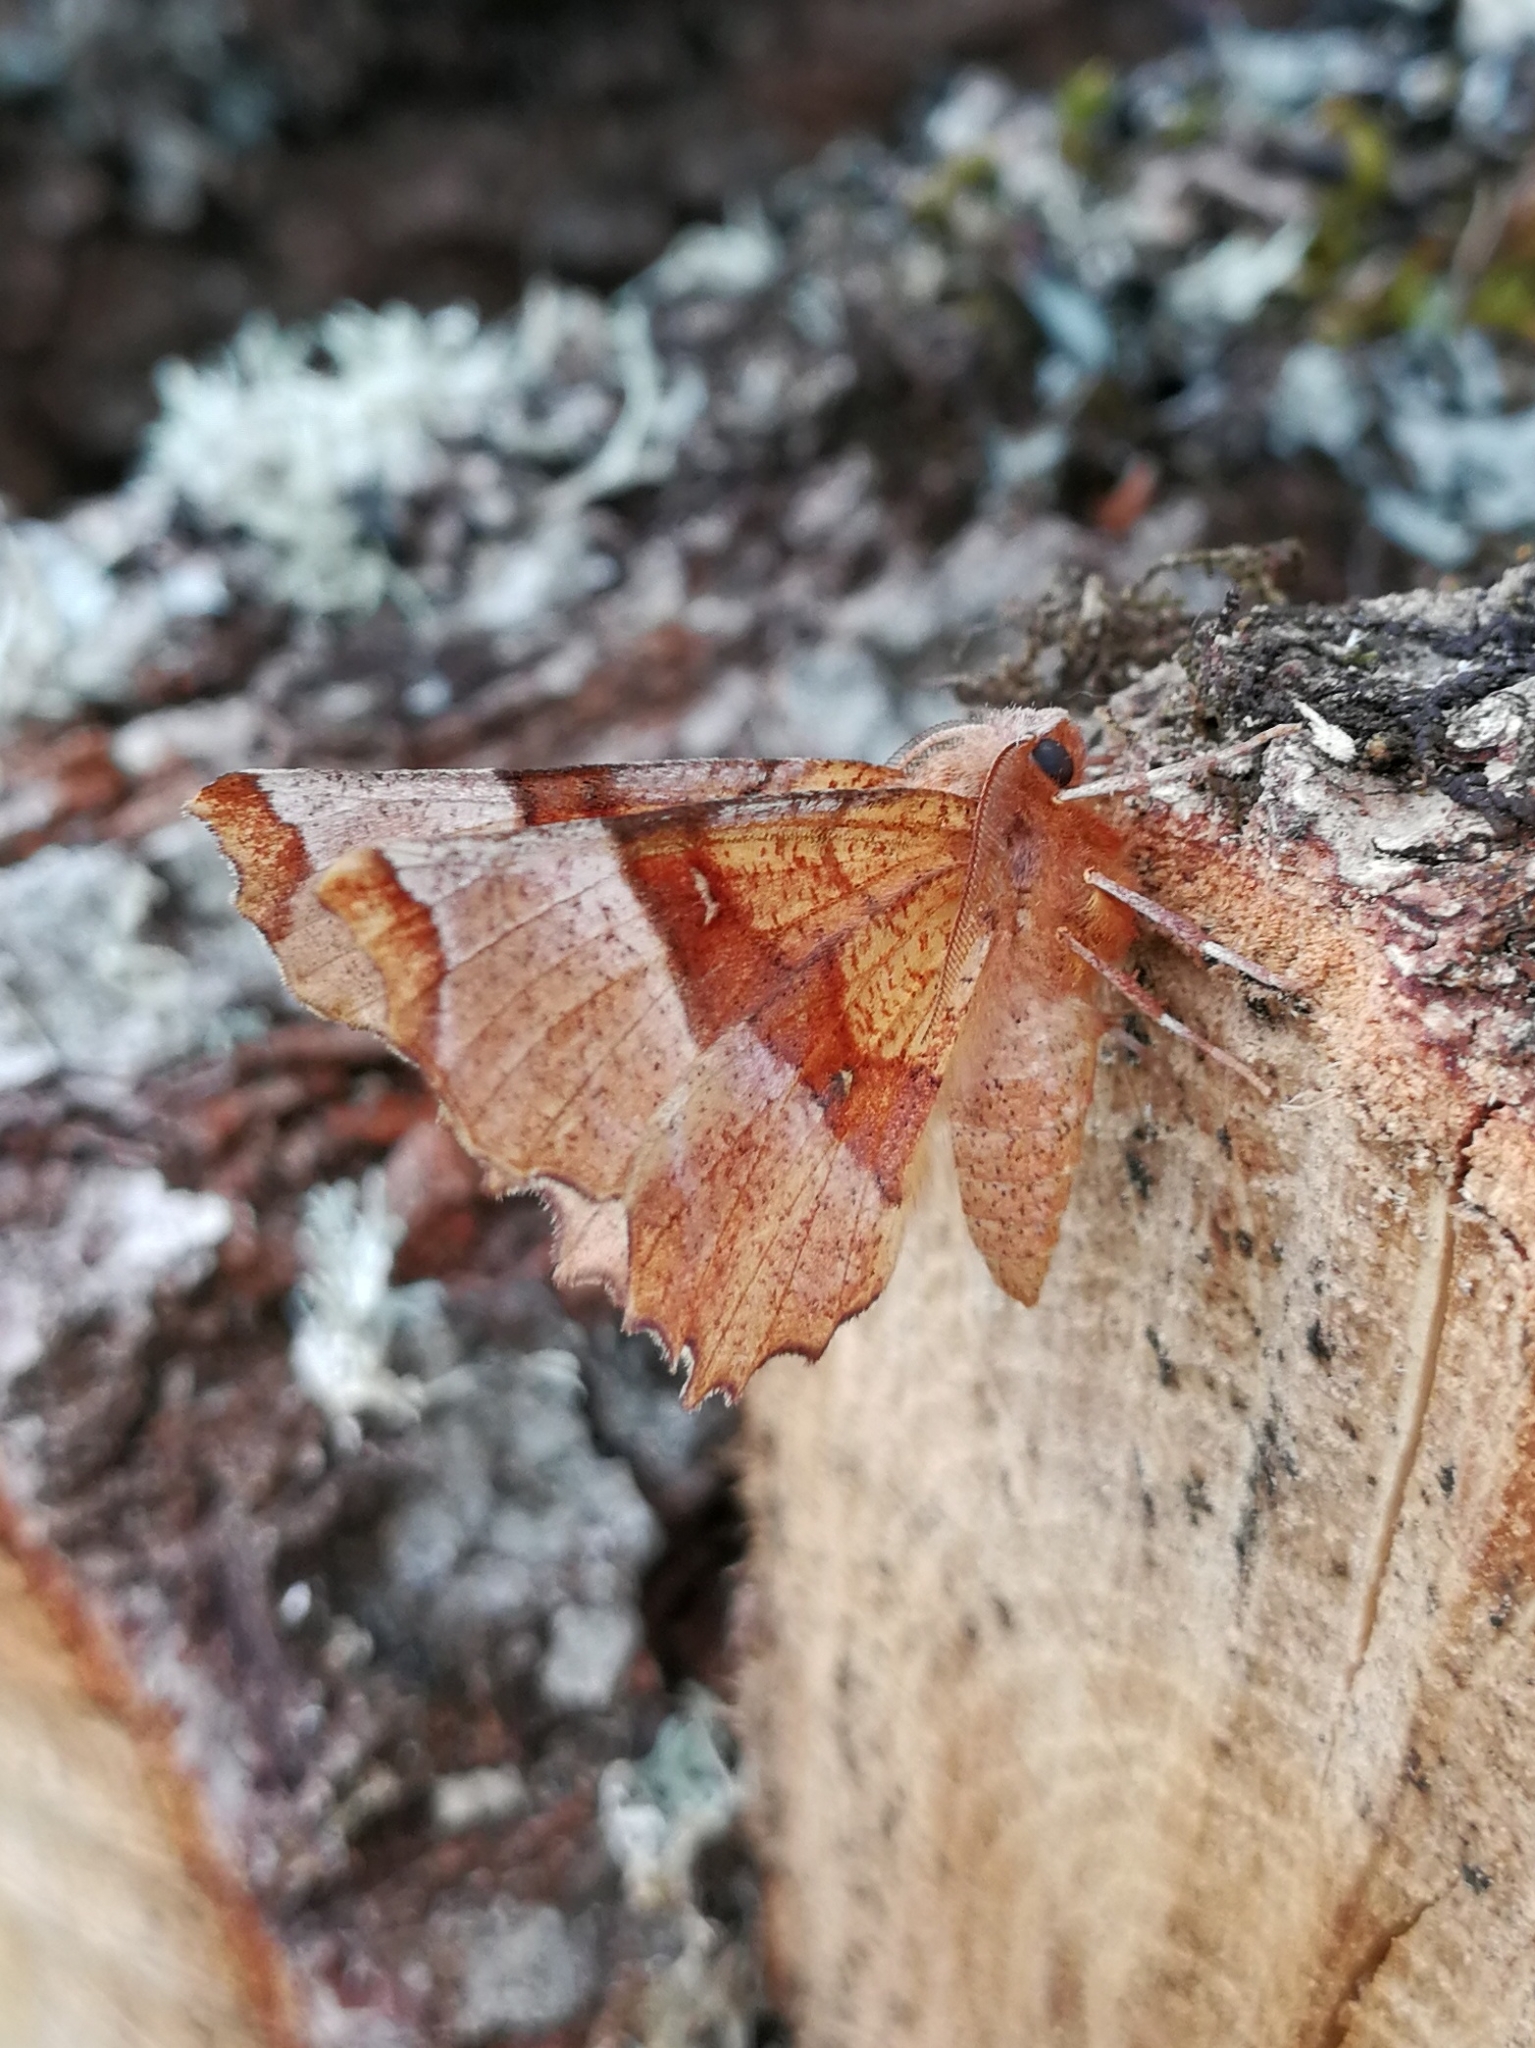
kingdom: Animalia
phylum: Arthropoda
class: Insecta
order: Lepidoptera
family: Geometridae
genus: Selenia
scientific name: Selenia lunularia
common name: Lunar thorn
